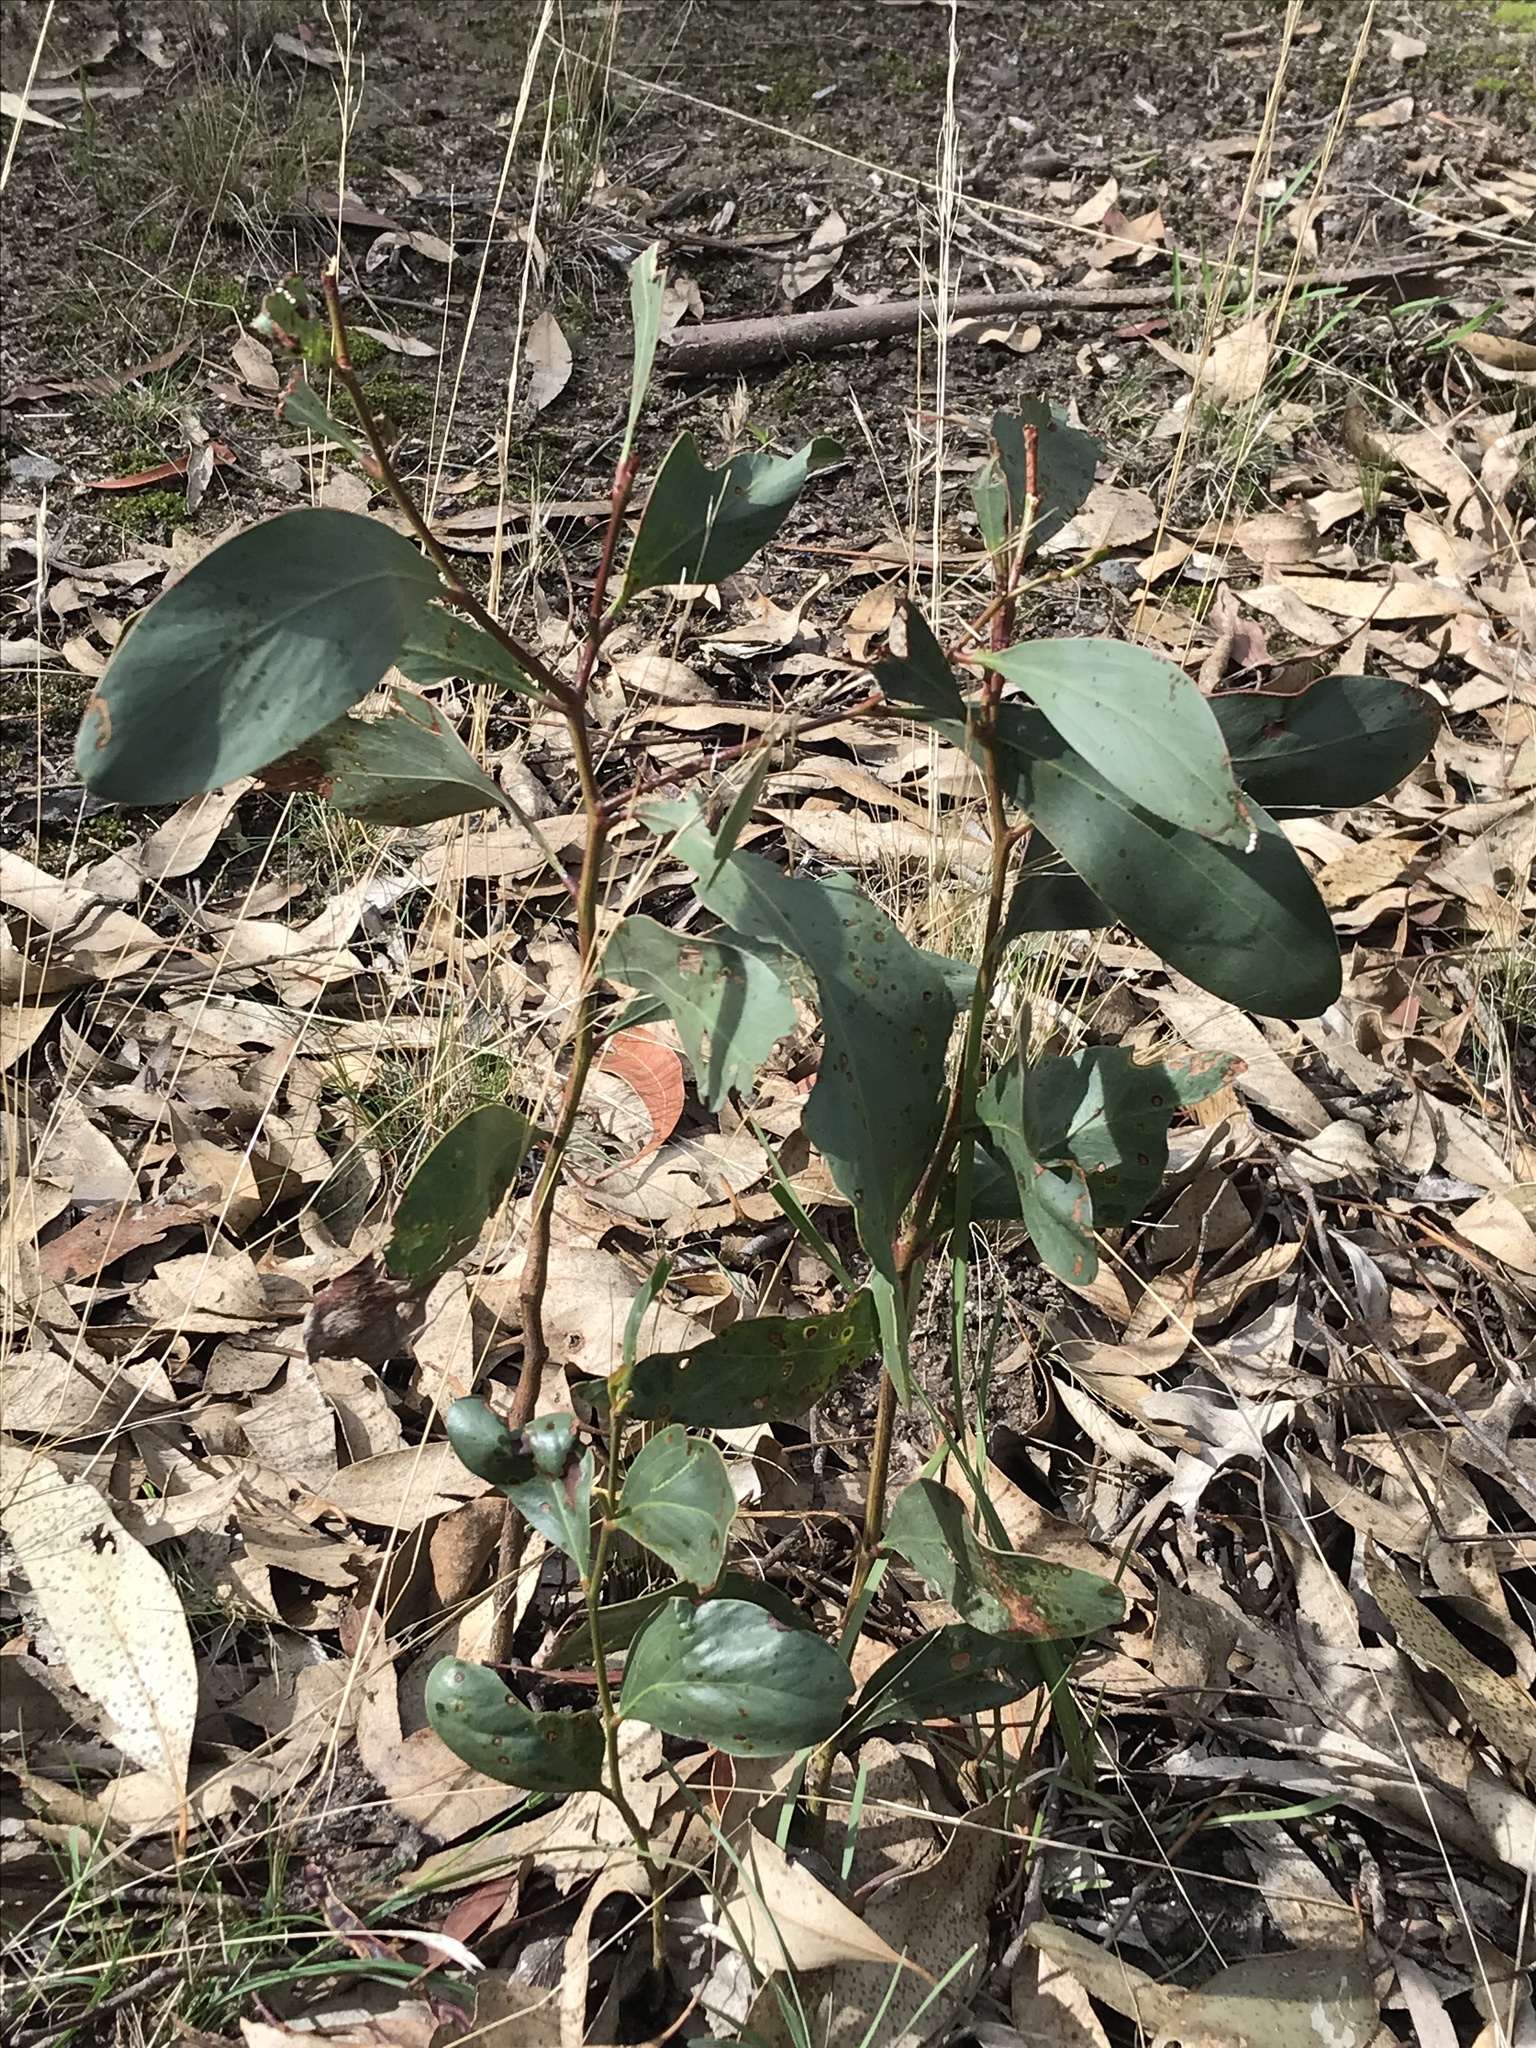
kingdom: Plantae
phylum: Tracheophyta
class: Magnoliopsida
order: Fabales
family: Fabaceae
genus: Acacia
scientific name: Acacia pycnantha
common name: Golden wattle
